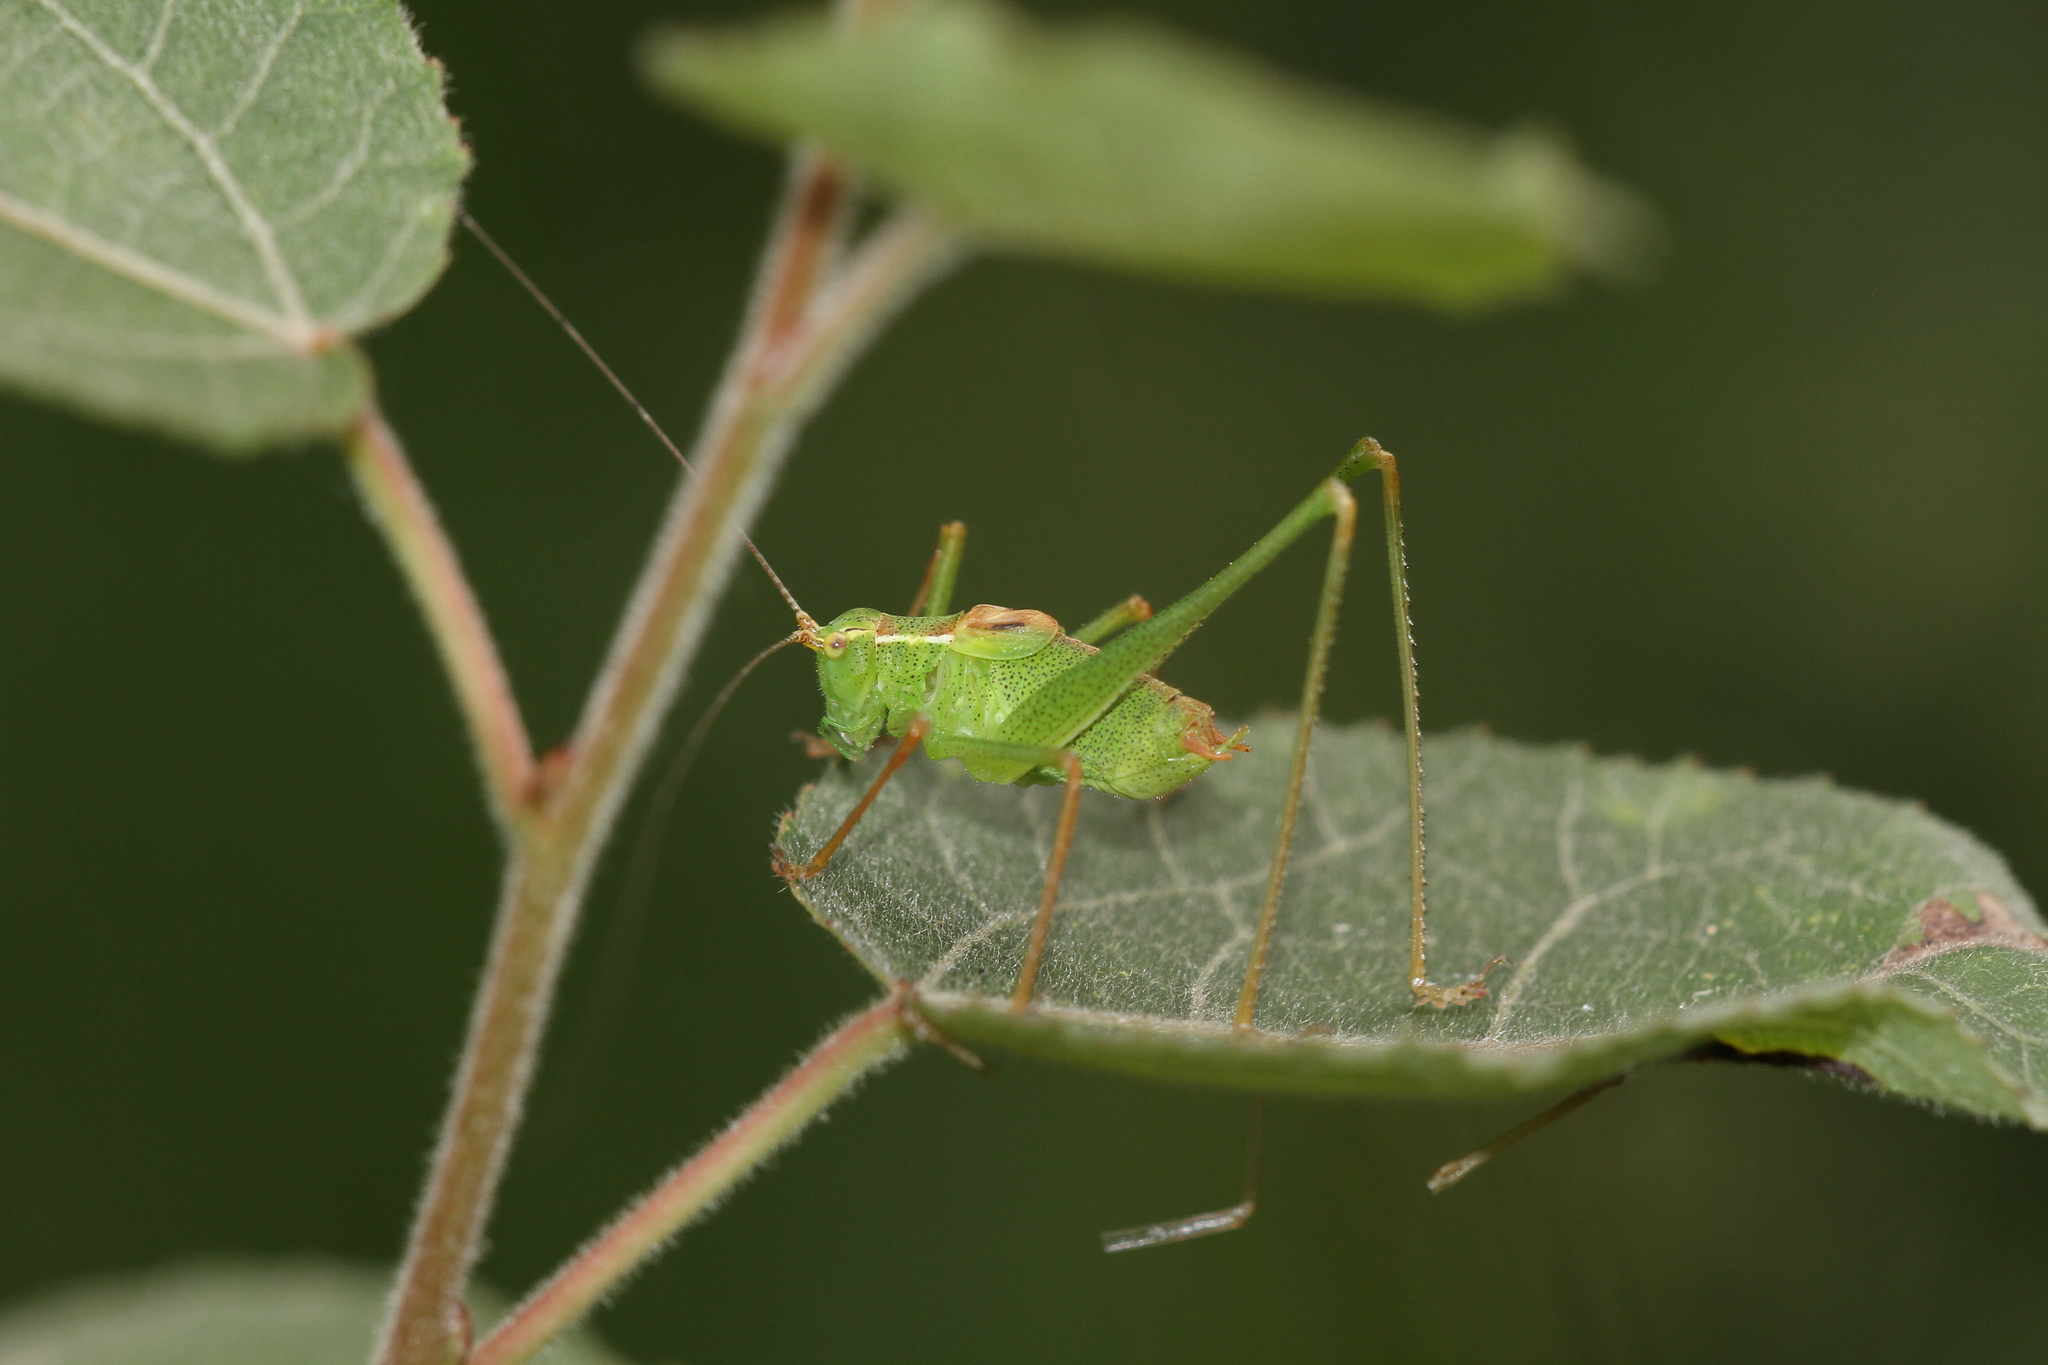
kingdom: Animalia
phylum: Arthropoda
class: Insecta
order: Orthoptera
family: Tettigoniidae
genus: Leptophyes
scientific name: Leptophyes punctatissima
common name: Speckled bush-cricket
